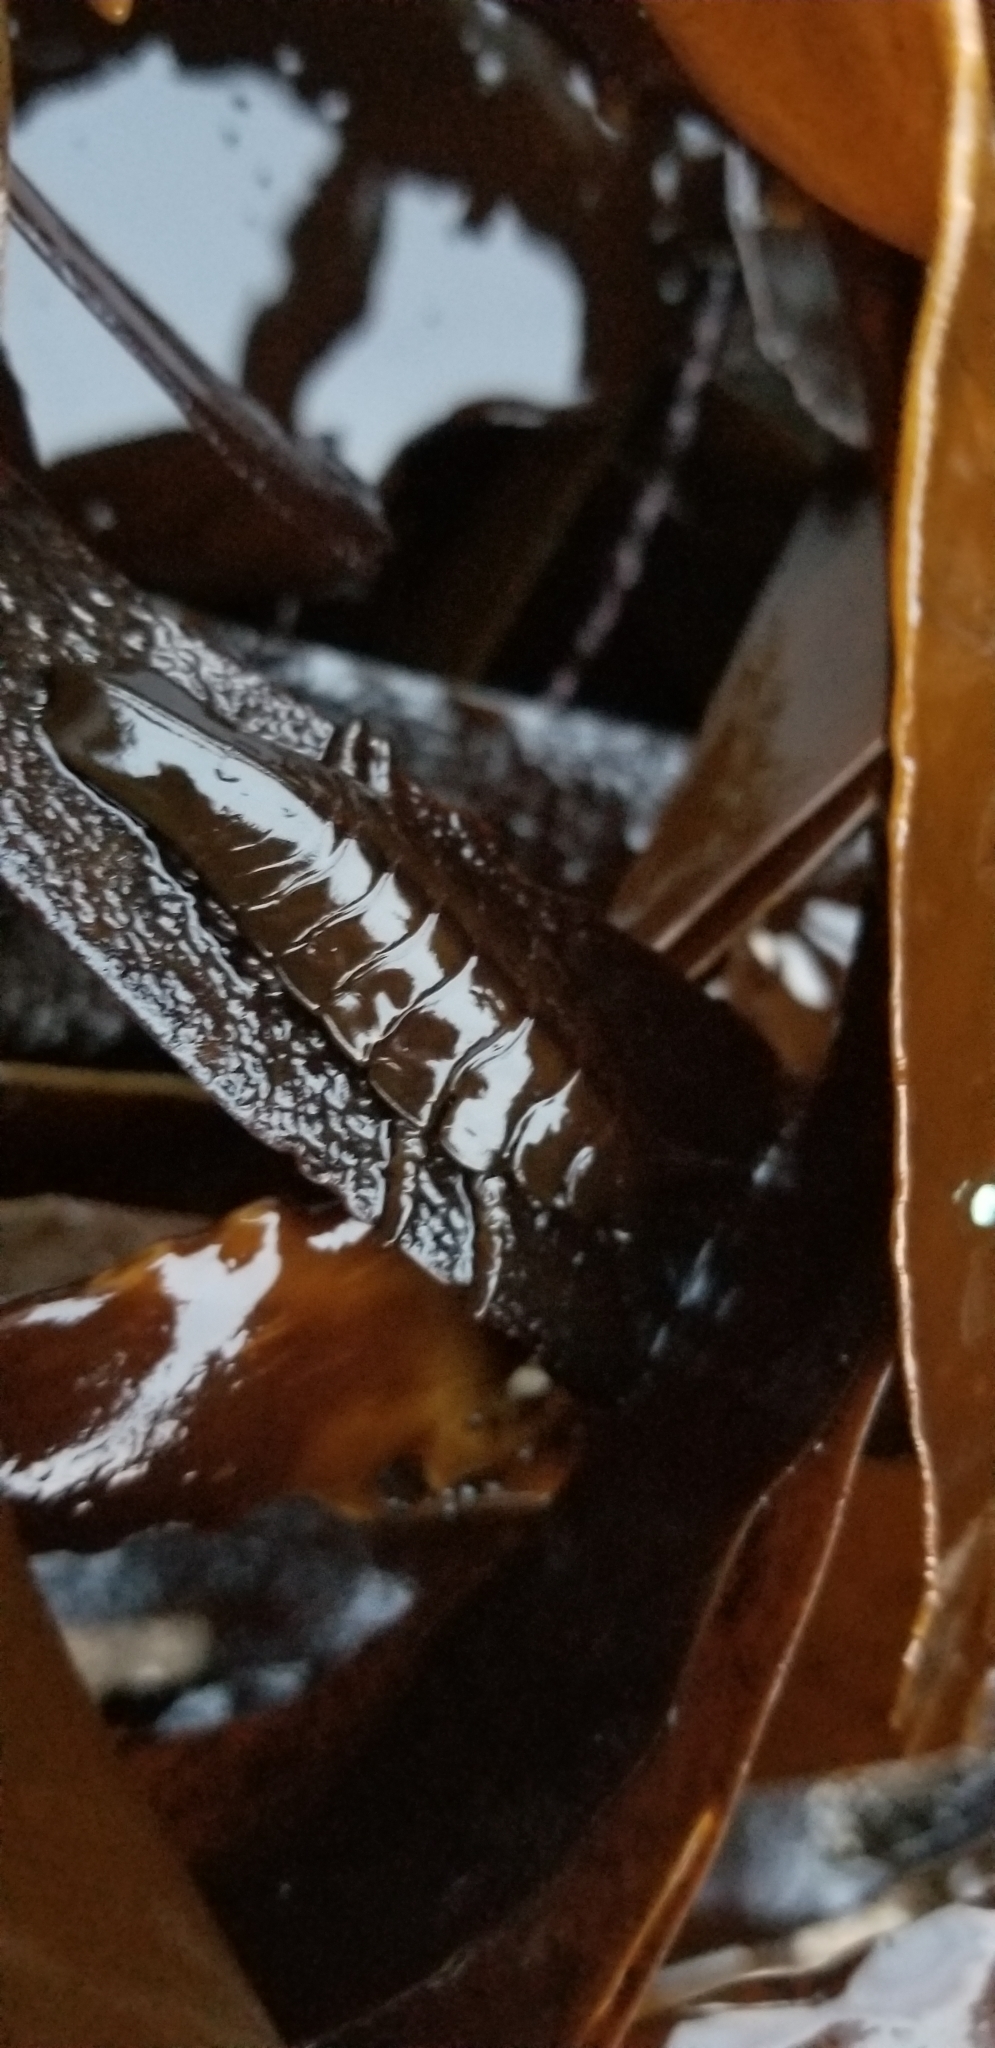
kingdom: Animalia
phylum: Arthropoda
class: Malacostraca
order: Isopoda
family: Idoteidae
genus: Pentidotea
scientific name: Pentidotea stenops
